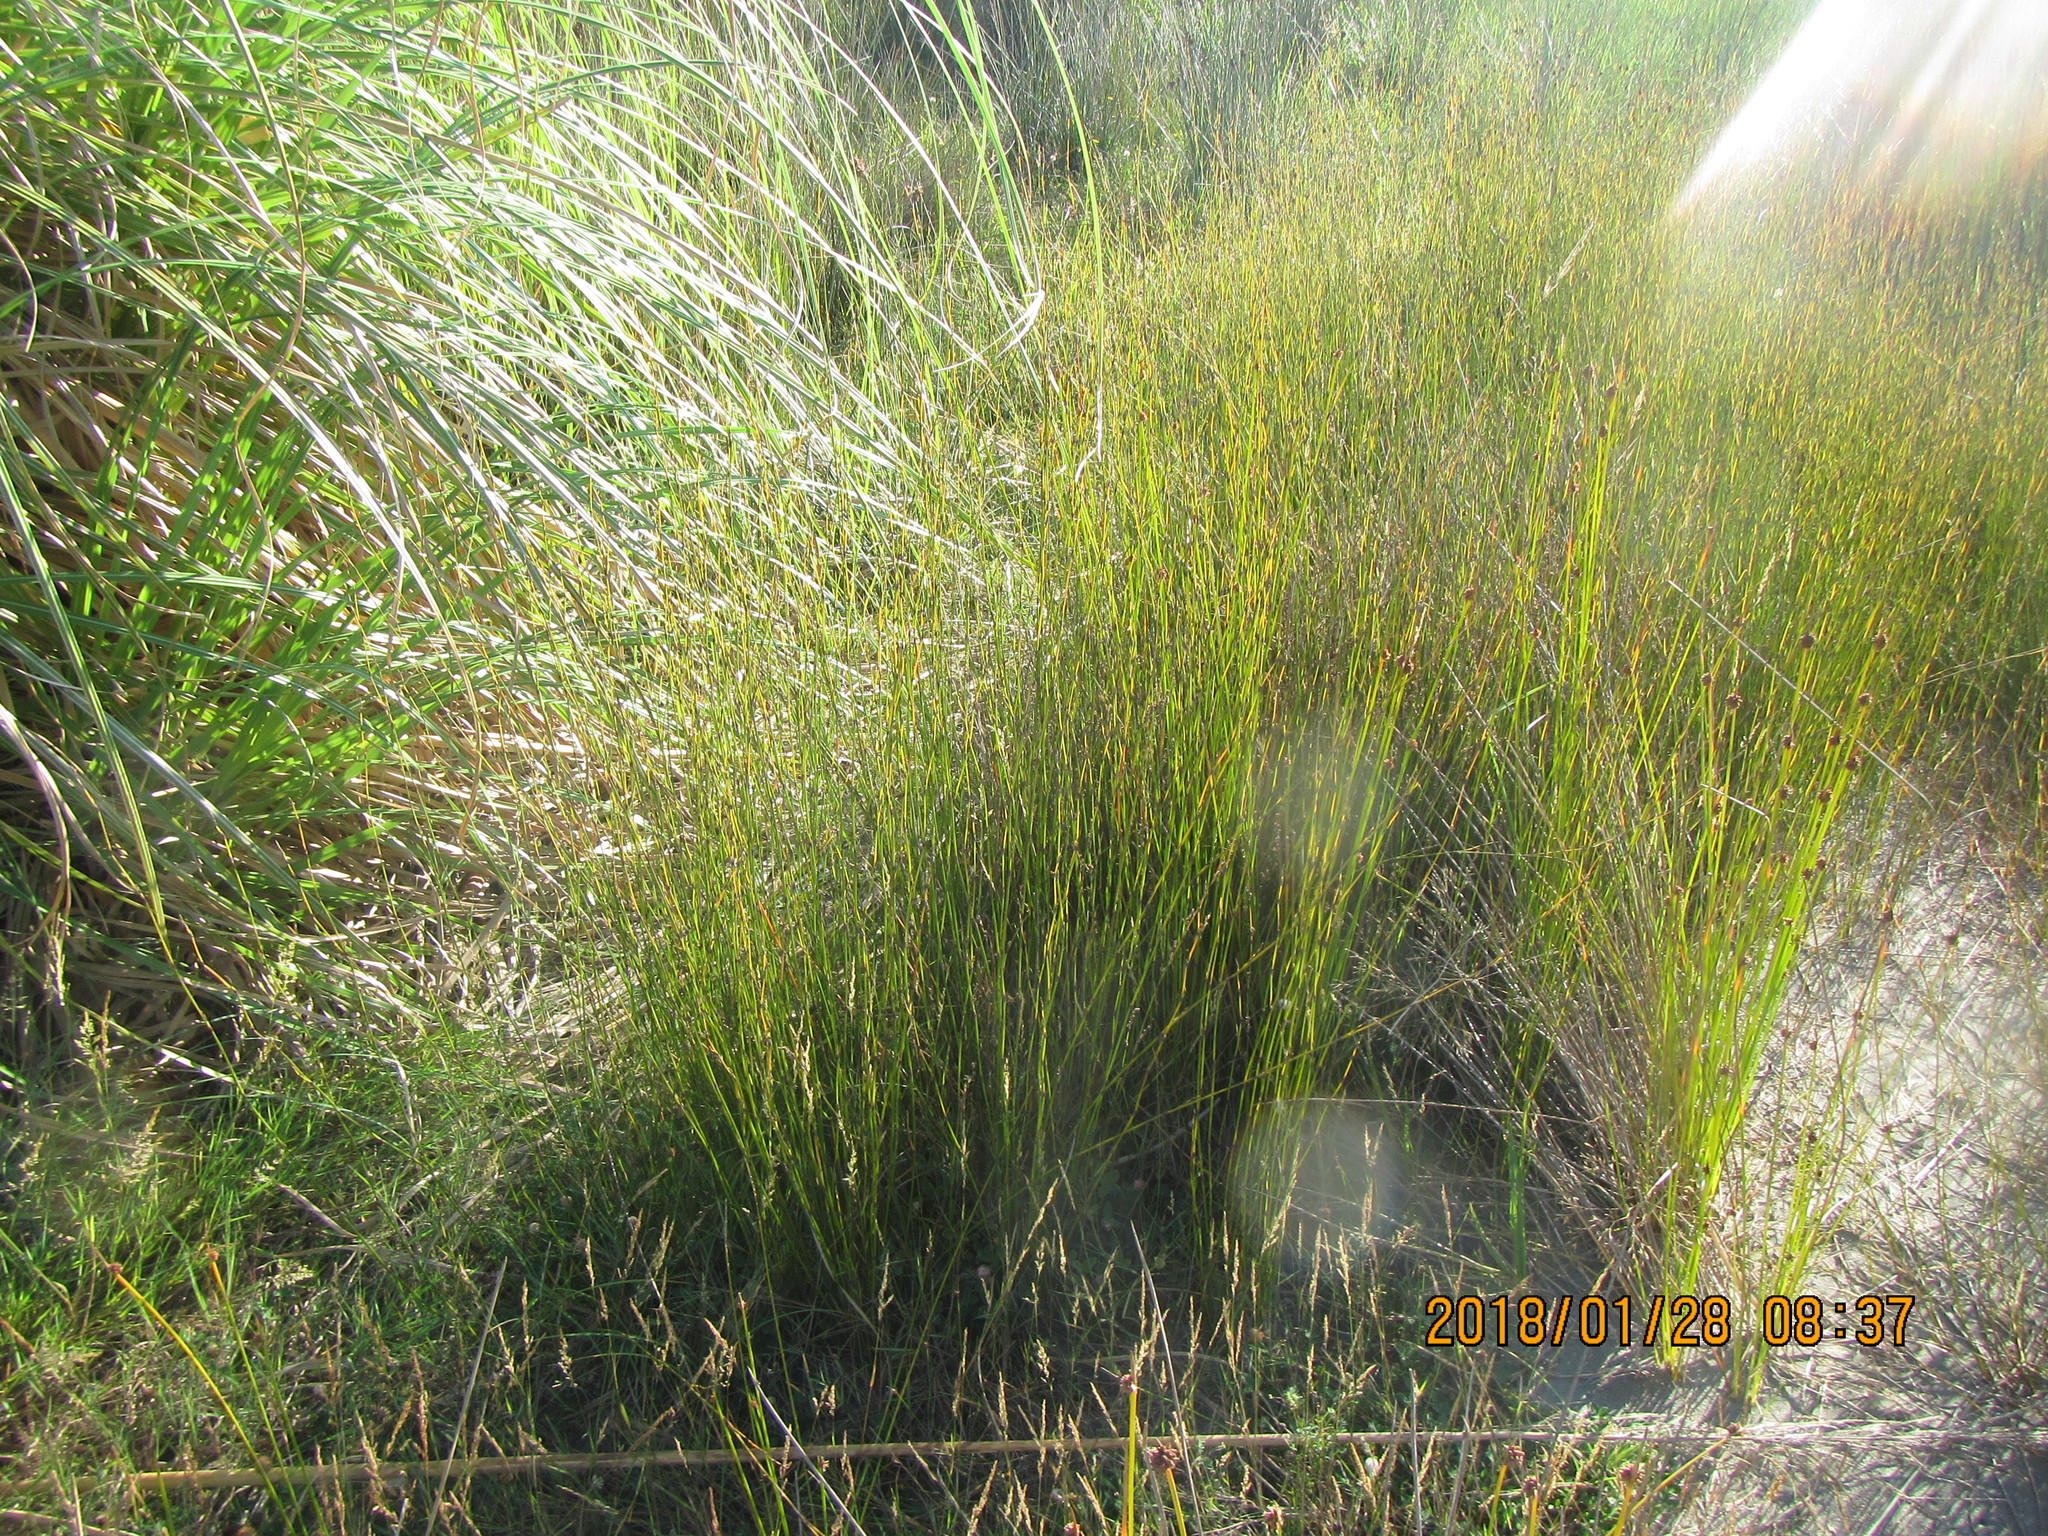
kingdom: Plantae
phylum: Tracheophyta
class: Liliopsida
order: Poales
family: Restionaceae
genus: Apodasmia
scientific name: Apodasmia similis
